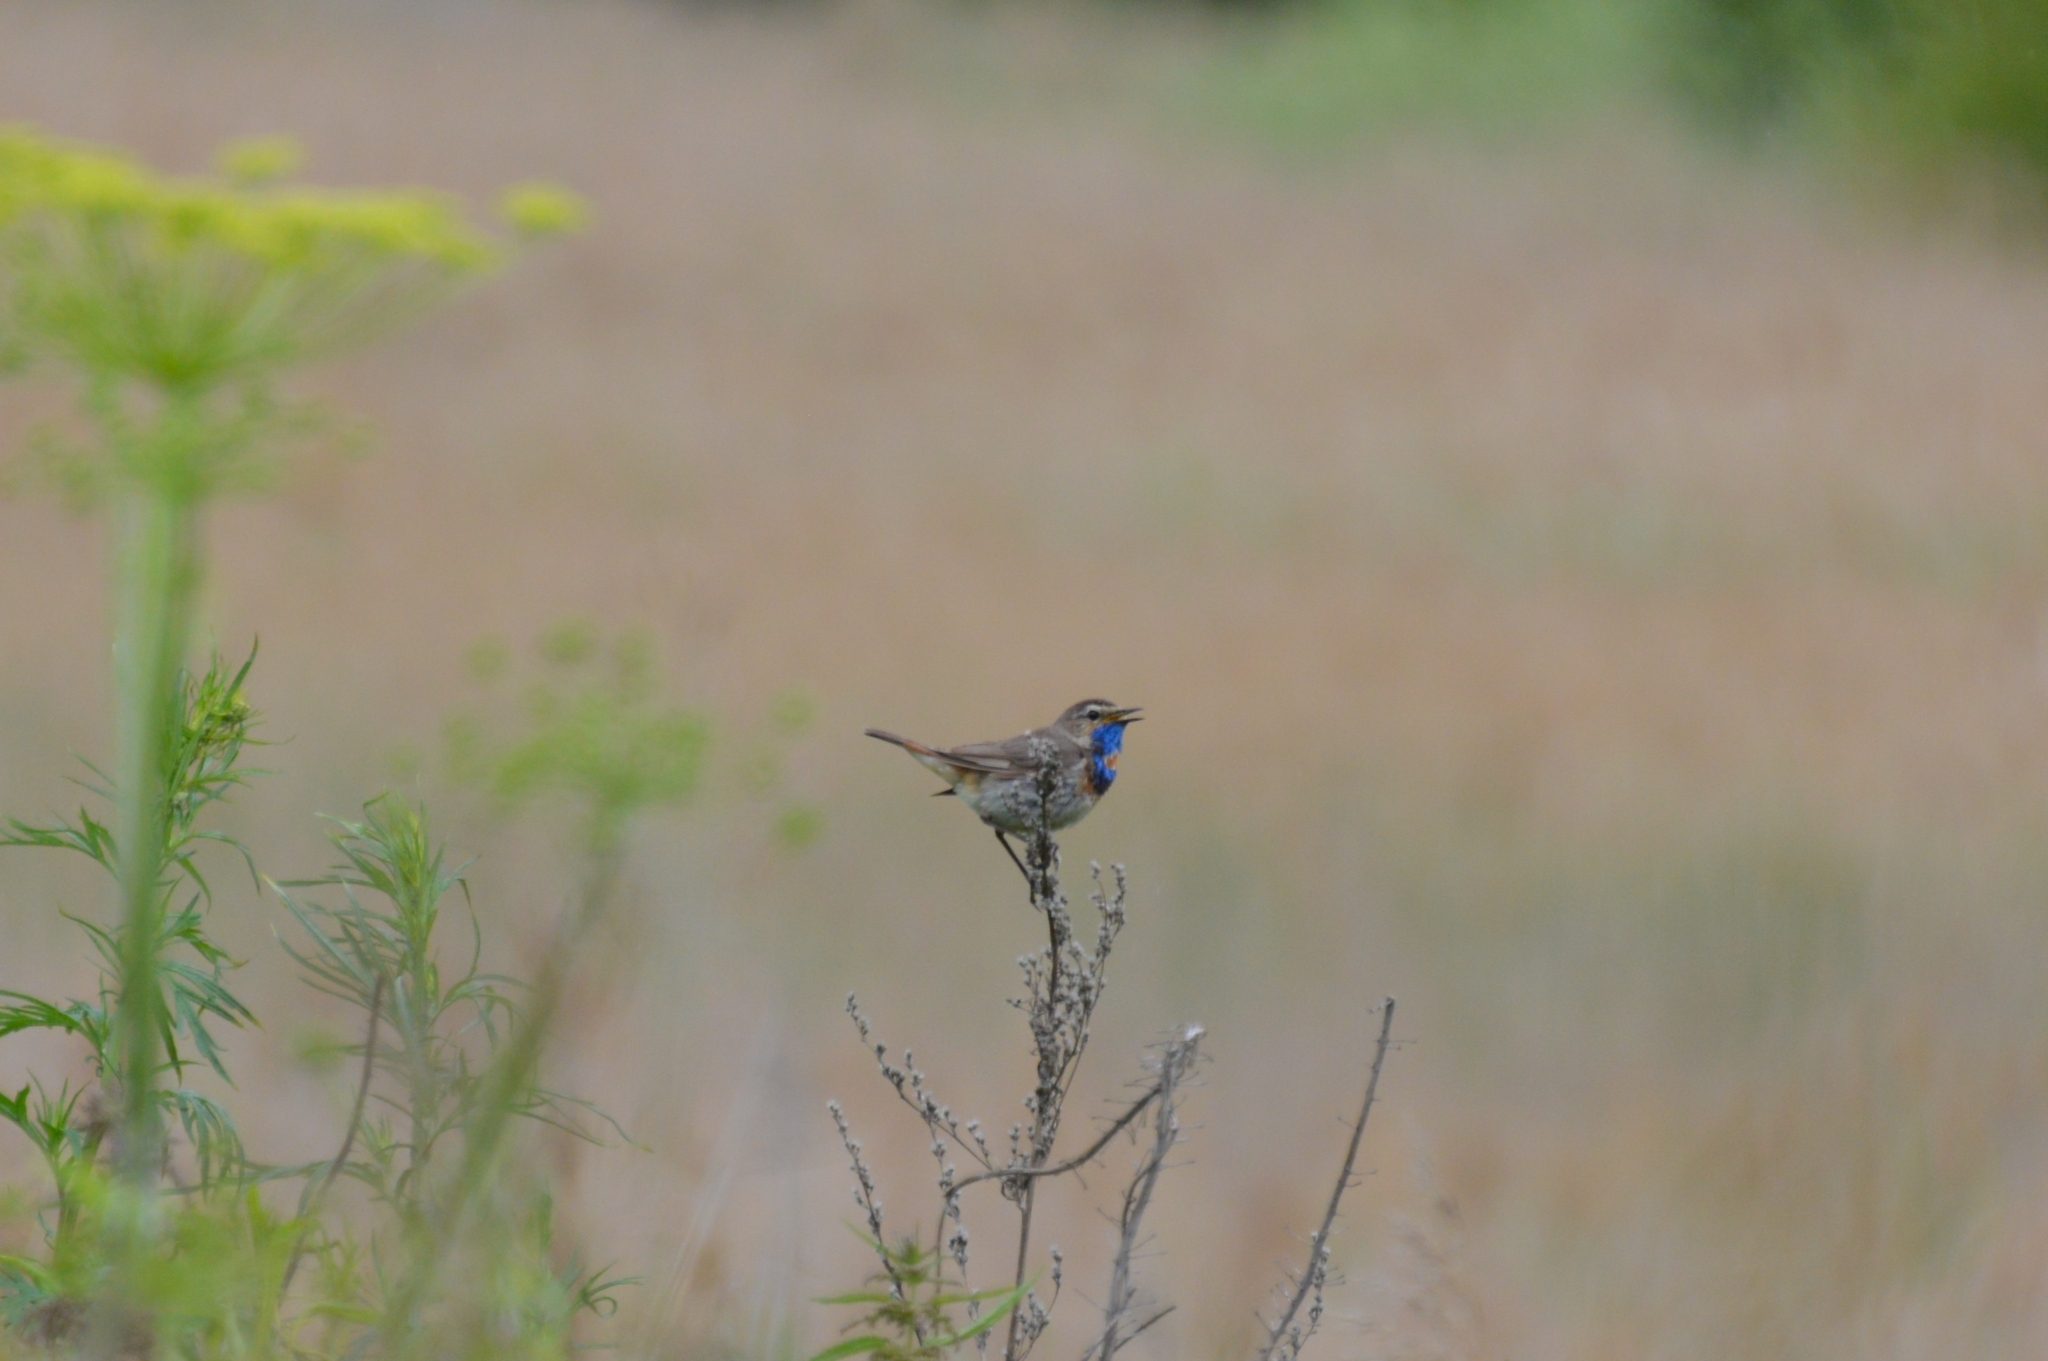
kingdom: Animalia
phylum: Chordata
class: Aves
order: Passeriformes
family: Muscicapidae
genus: Luscinia
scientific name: Luscinia svecica
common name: Bluethroat
